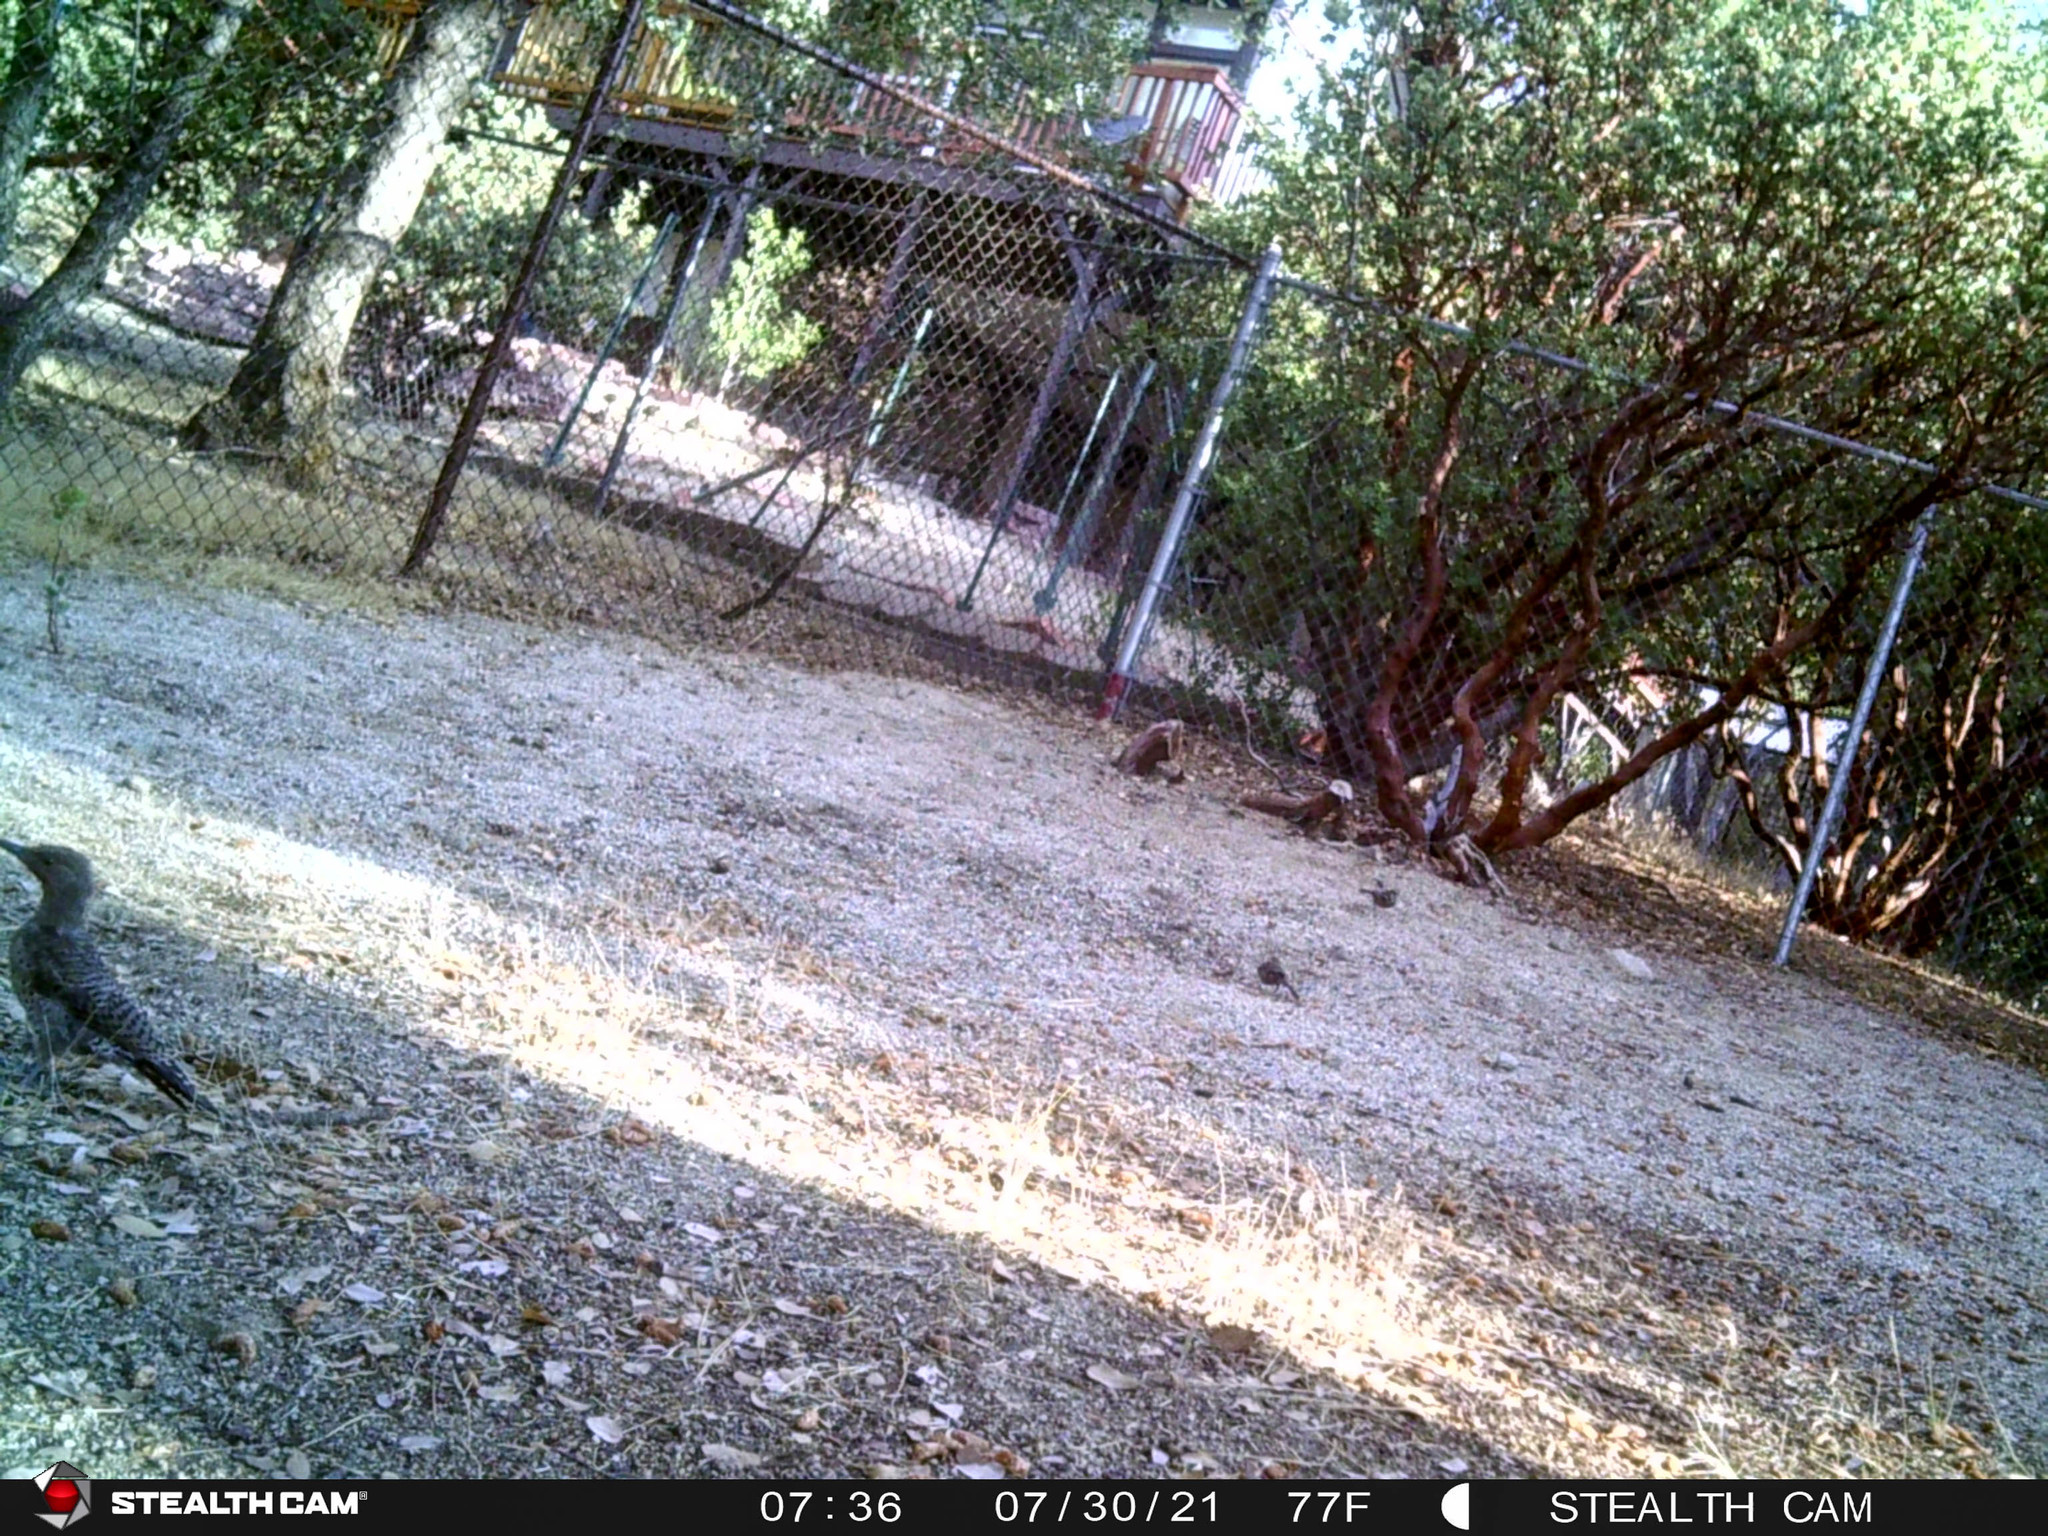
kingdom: Animalia
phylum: Chordata
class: Aves
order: Piciformes
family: Picidae
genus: Colaptes
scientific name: Colaptes auratus
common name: Northern flicker
